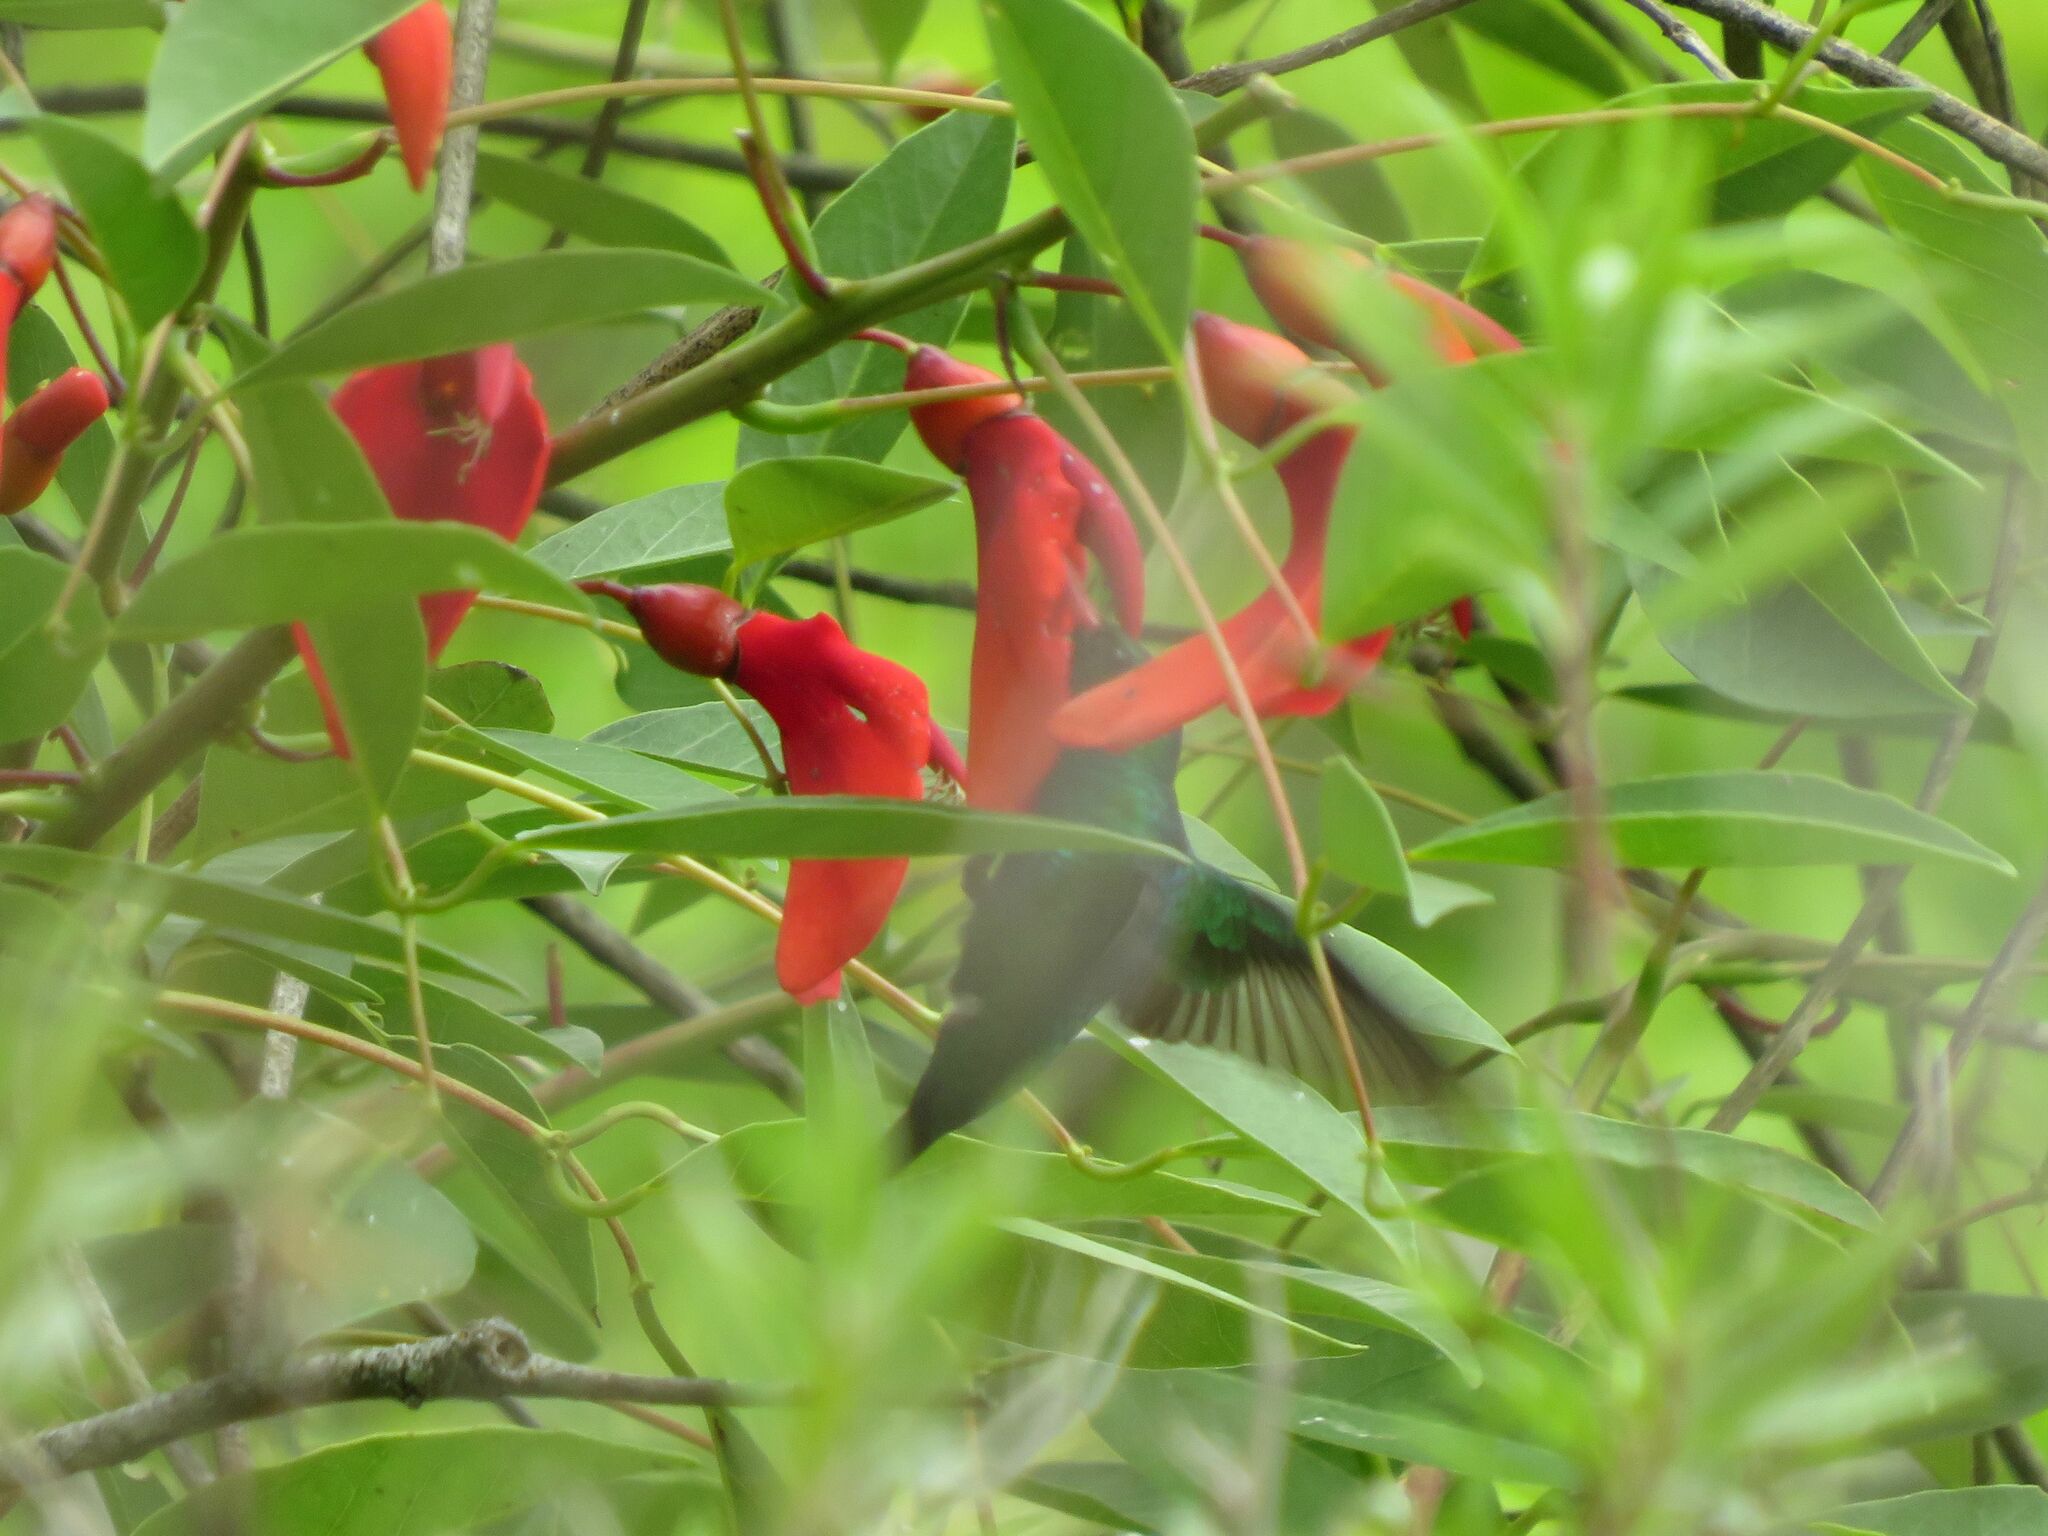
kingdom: Animalia
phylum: Chordata
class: Aves
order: Apodiformes
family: Trochilidae
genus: Chlorostilbon
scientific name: Chlorostilbon lucidus
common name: Glittering-bellied emerald
